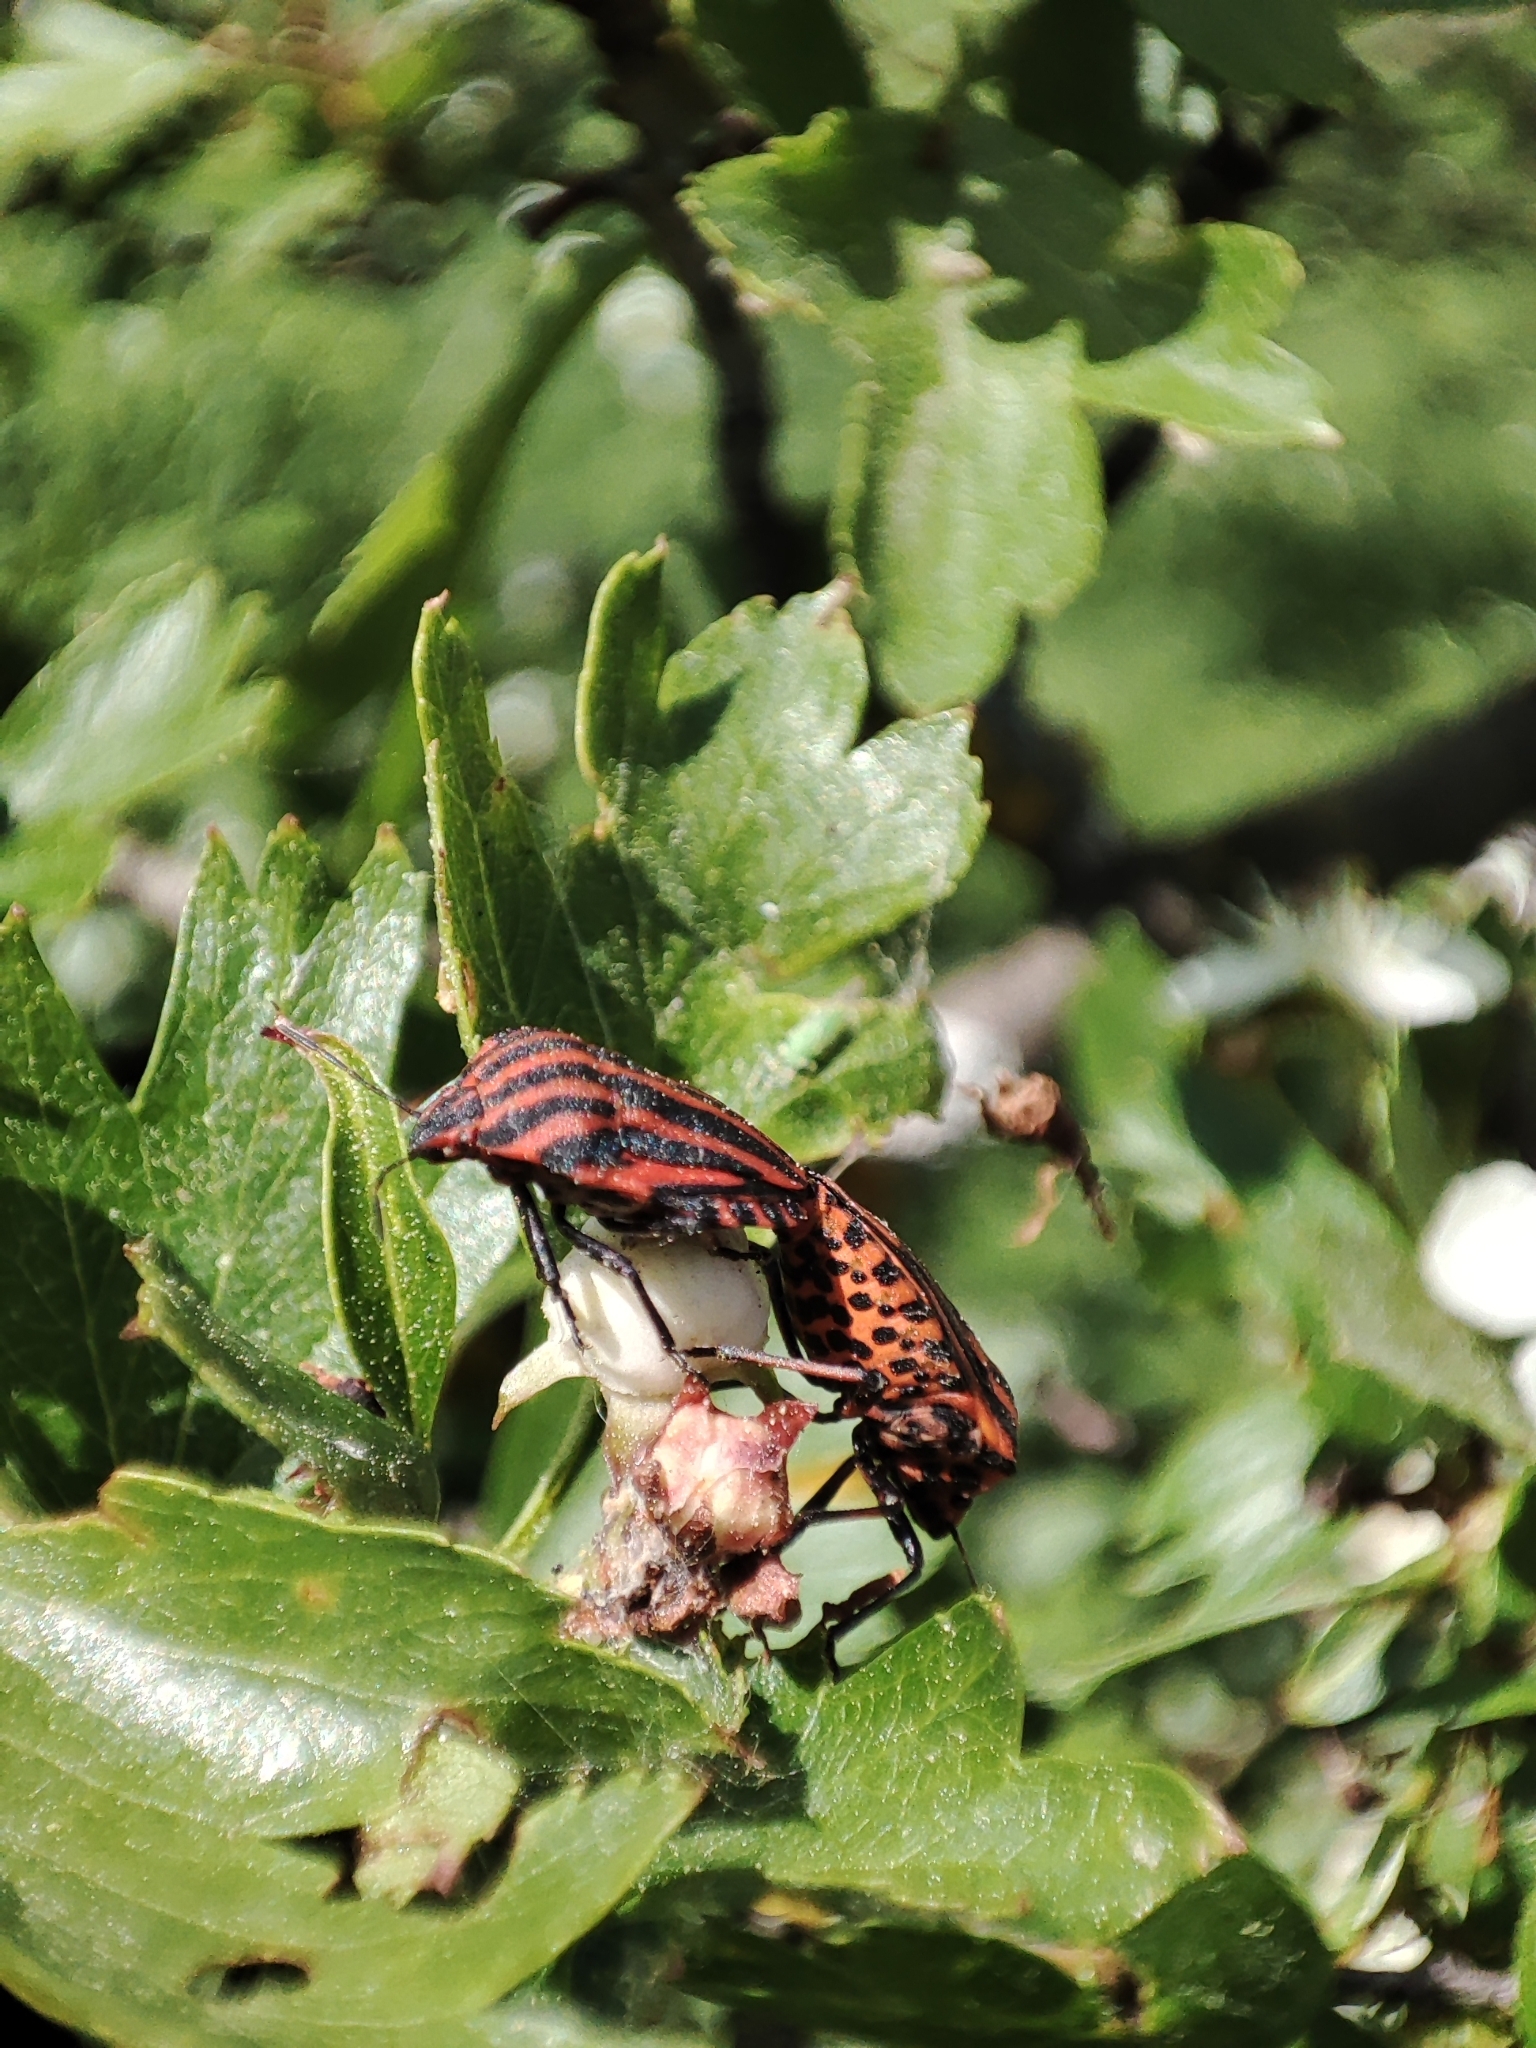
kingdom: Animalia
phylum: Arthropoda
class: Insecta
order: Hemiptera
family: Pentatomidae
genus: Graphosoma
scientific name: Graphosoma italicum
